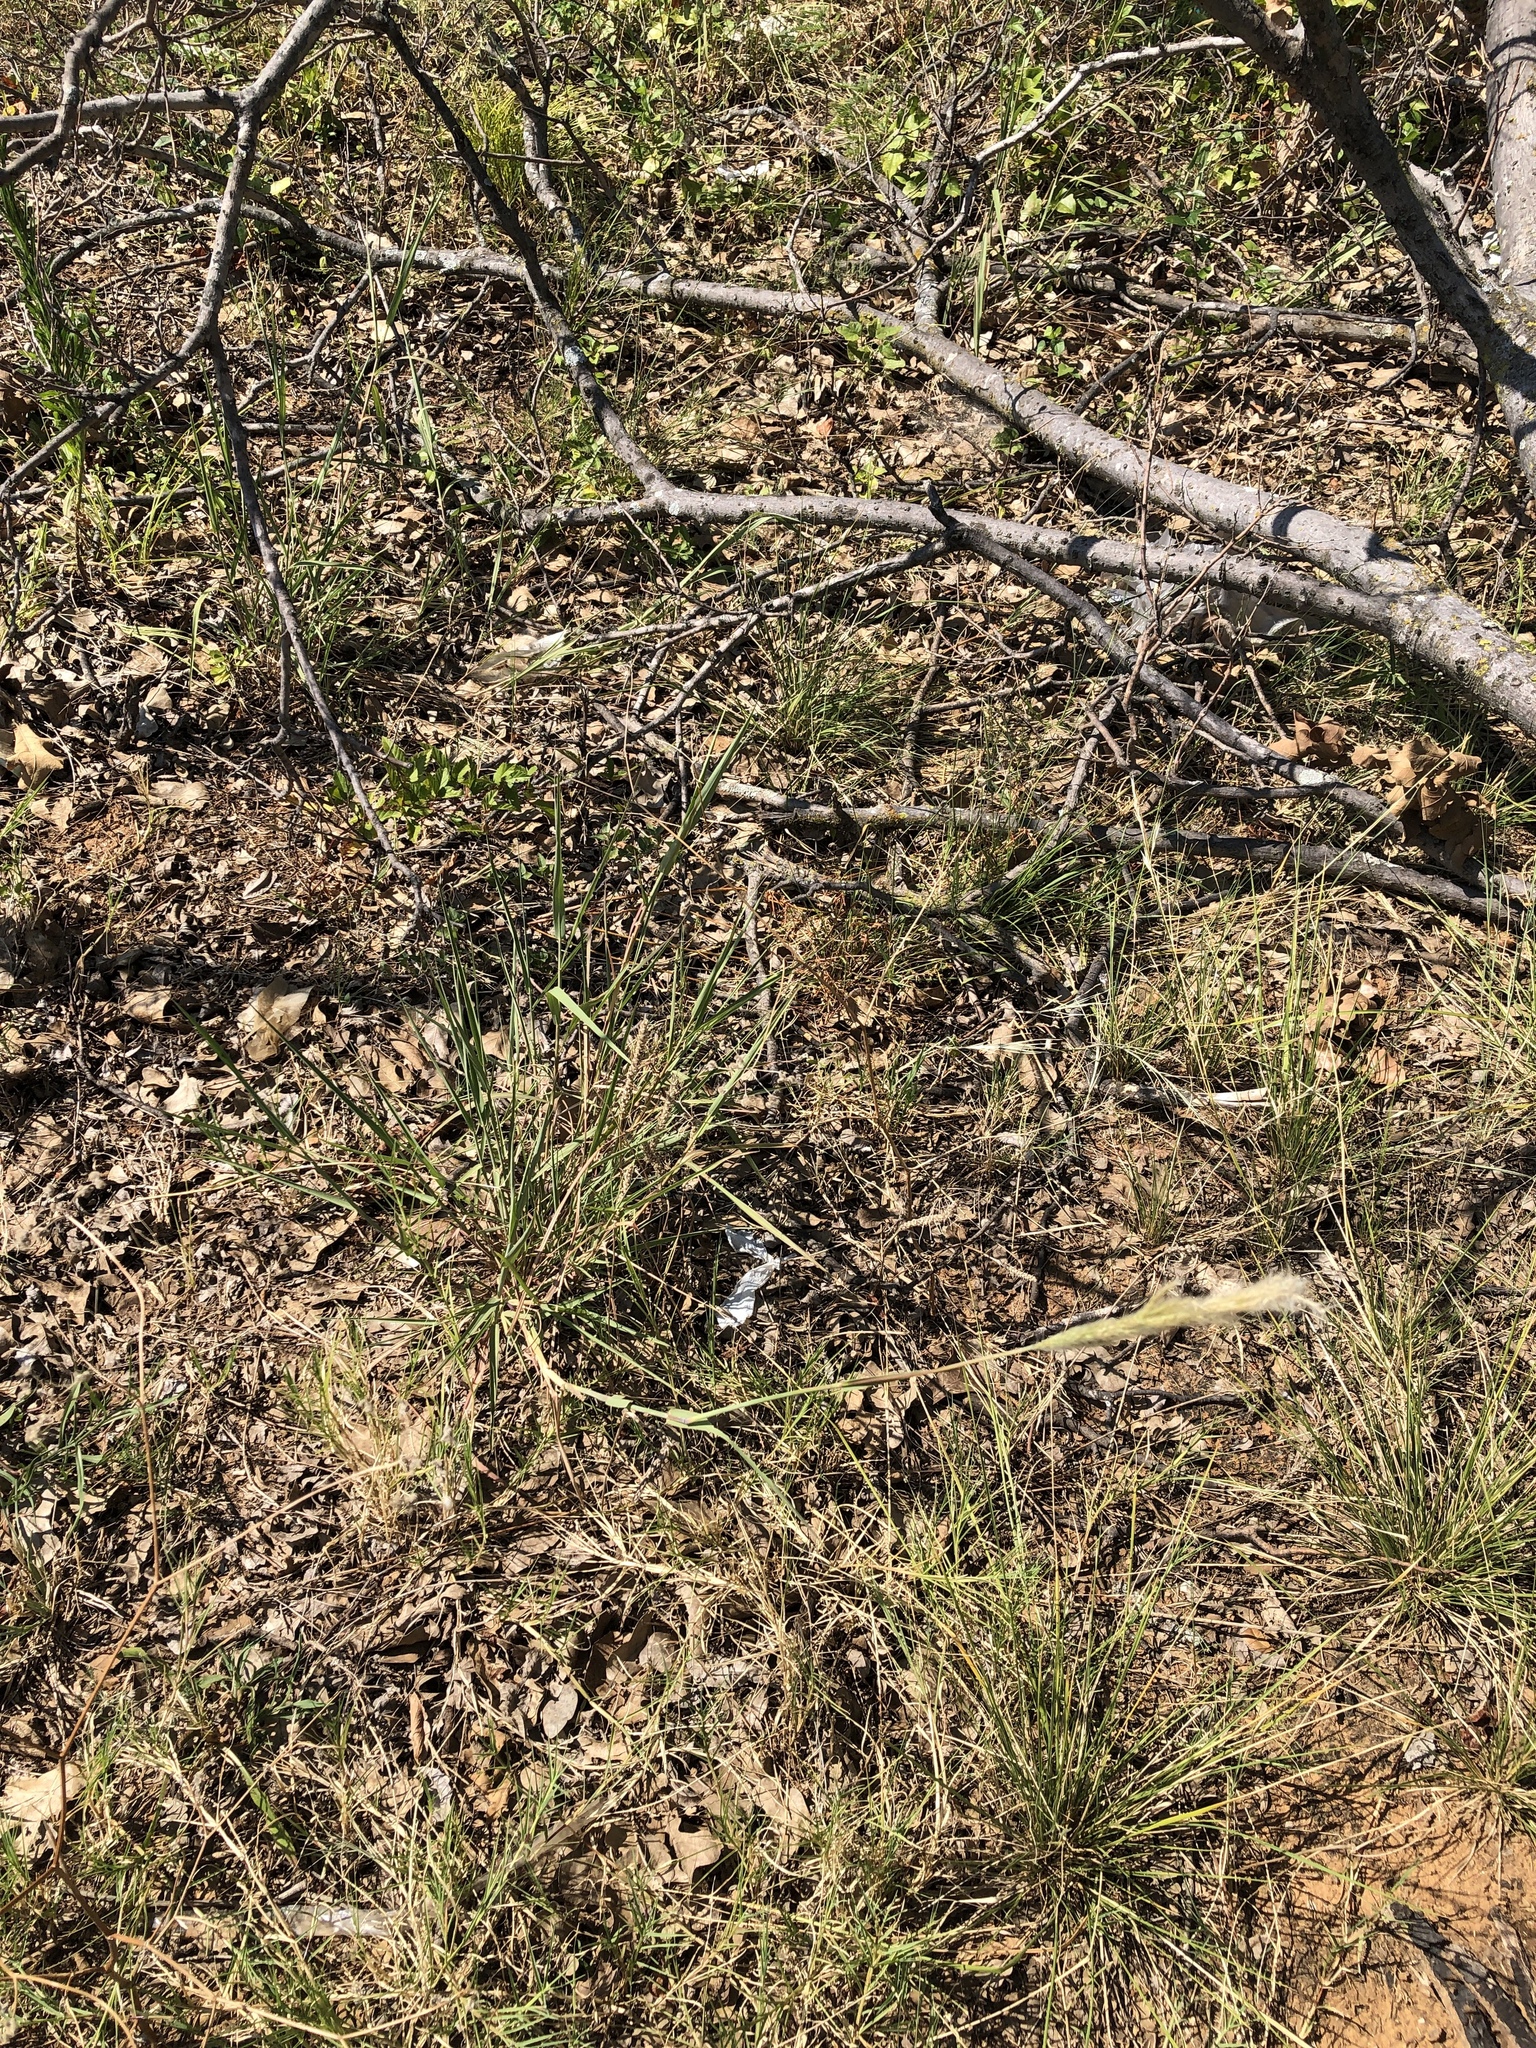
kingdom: Plantae
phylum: Tracheophyta
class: Liliopsida
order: Poales
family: Poaceae
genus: Bothriochloa
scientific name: Bothriochloa torreyana
